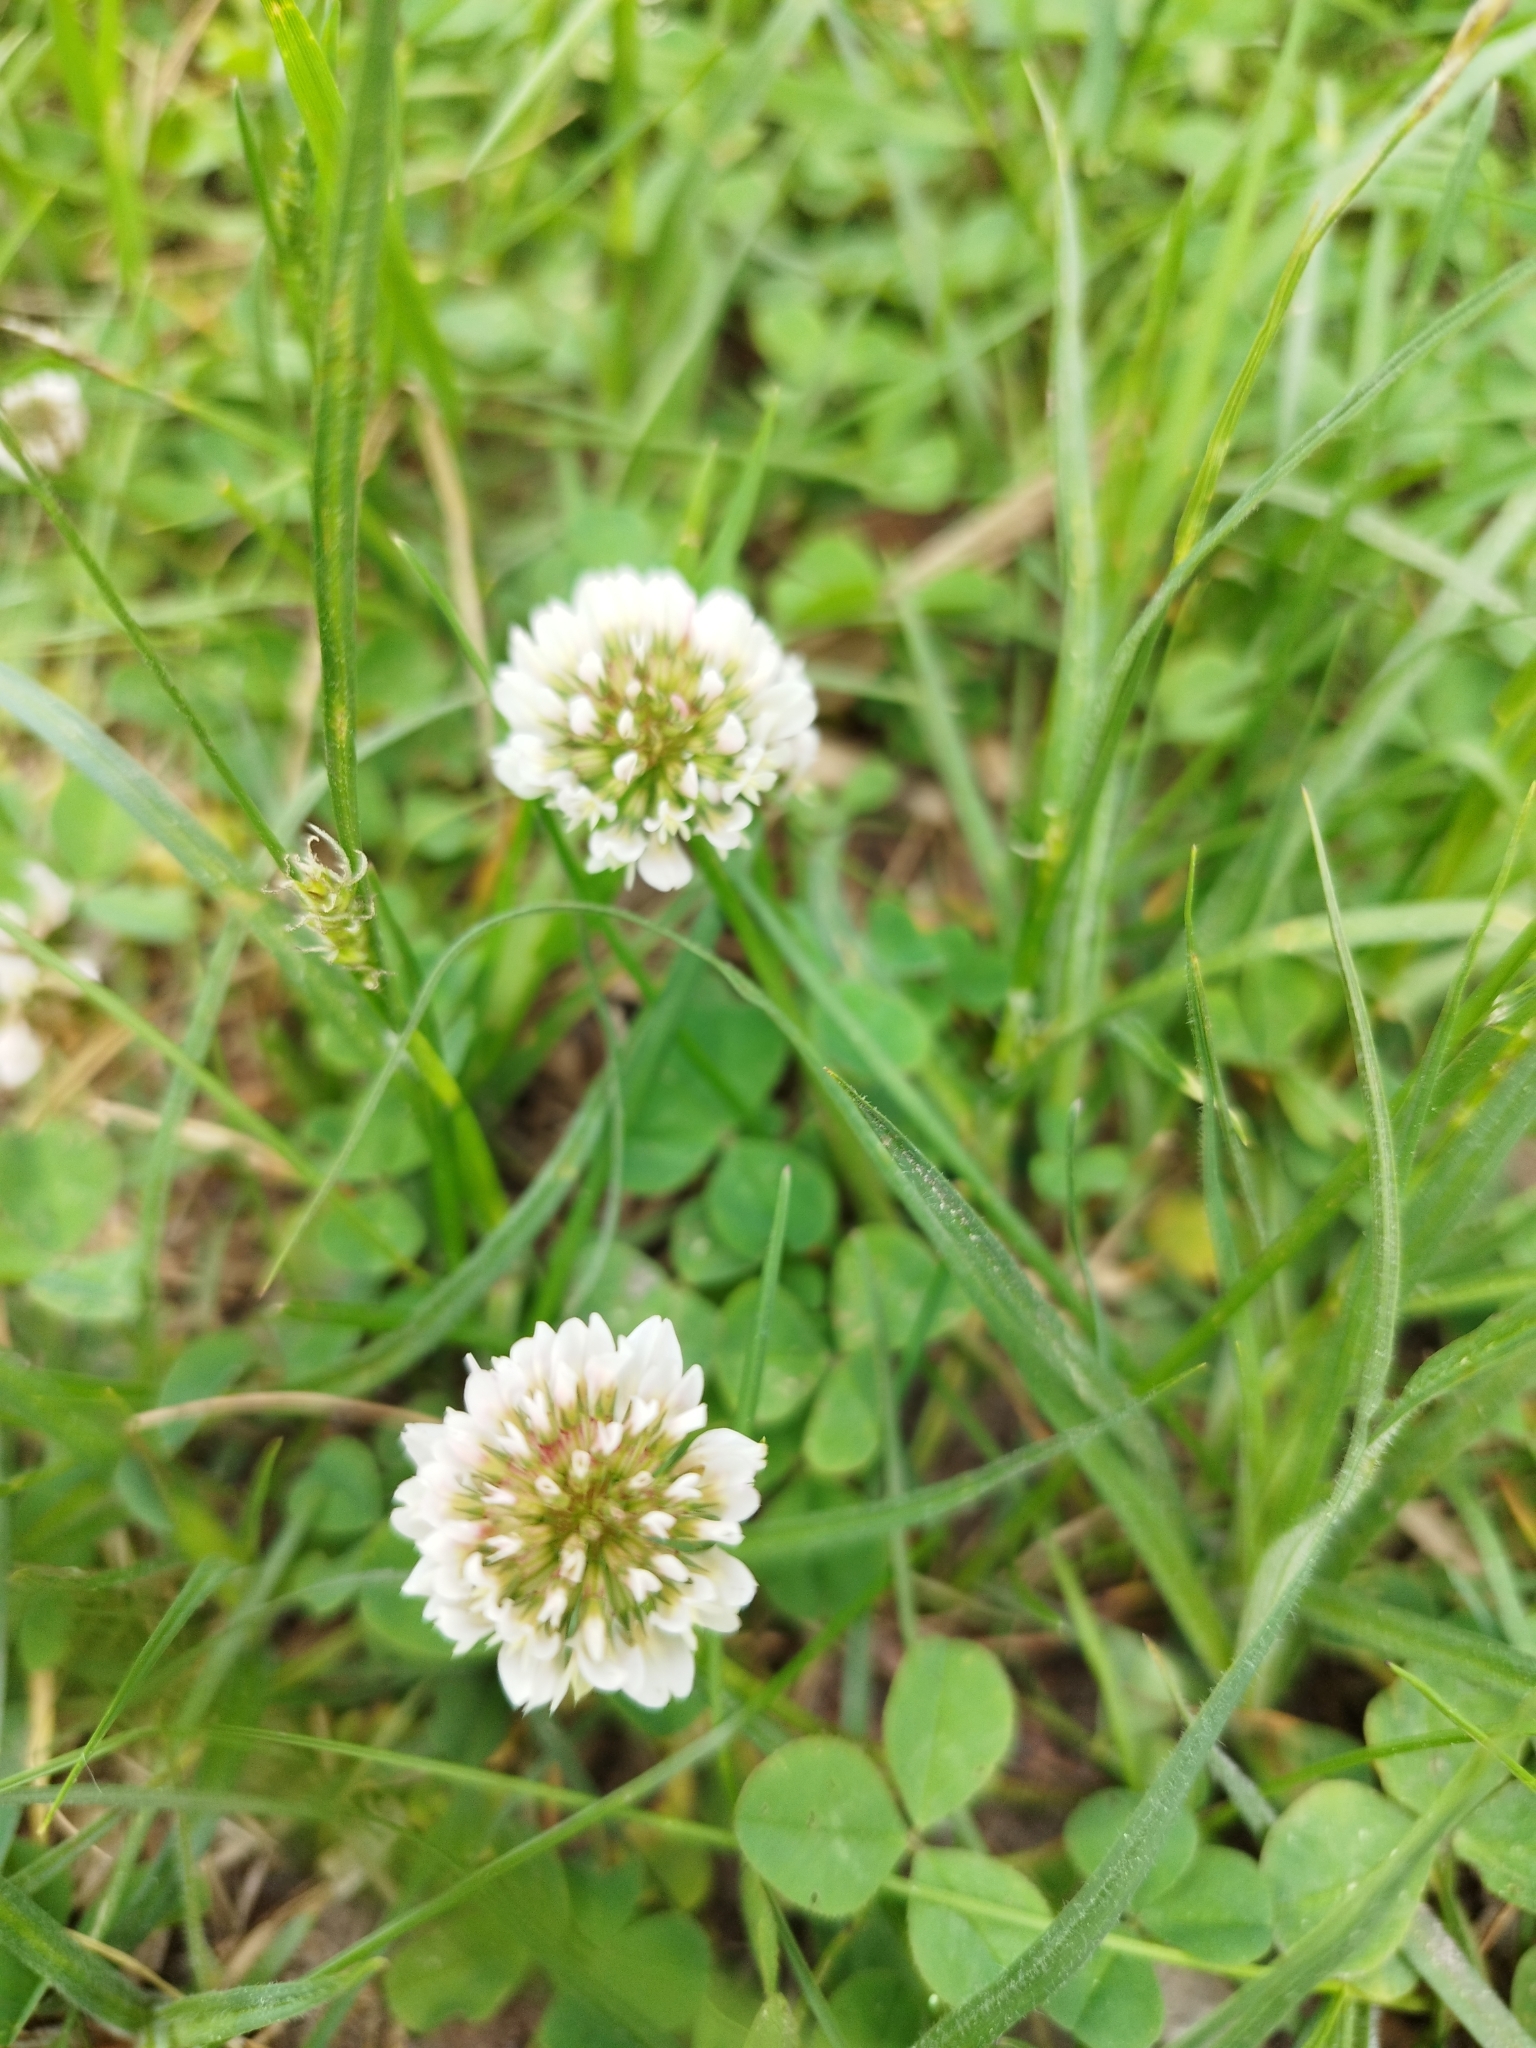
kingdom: Plantae
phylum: Tracheophyta
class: Magnoliopsida
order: Fabales
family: Fabaceae
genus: Trifolium
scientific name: Trifolium repens
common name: White clover
